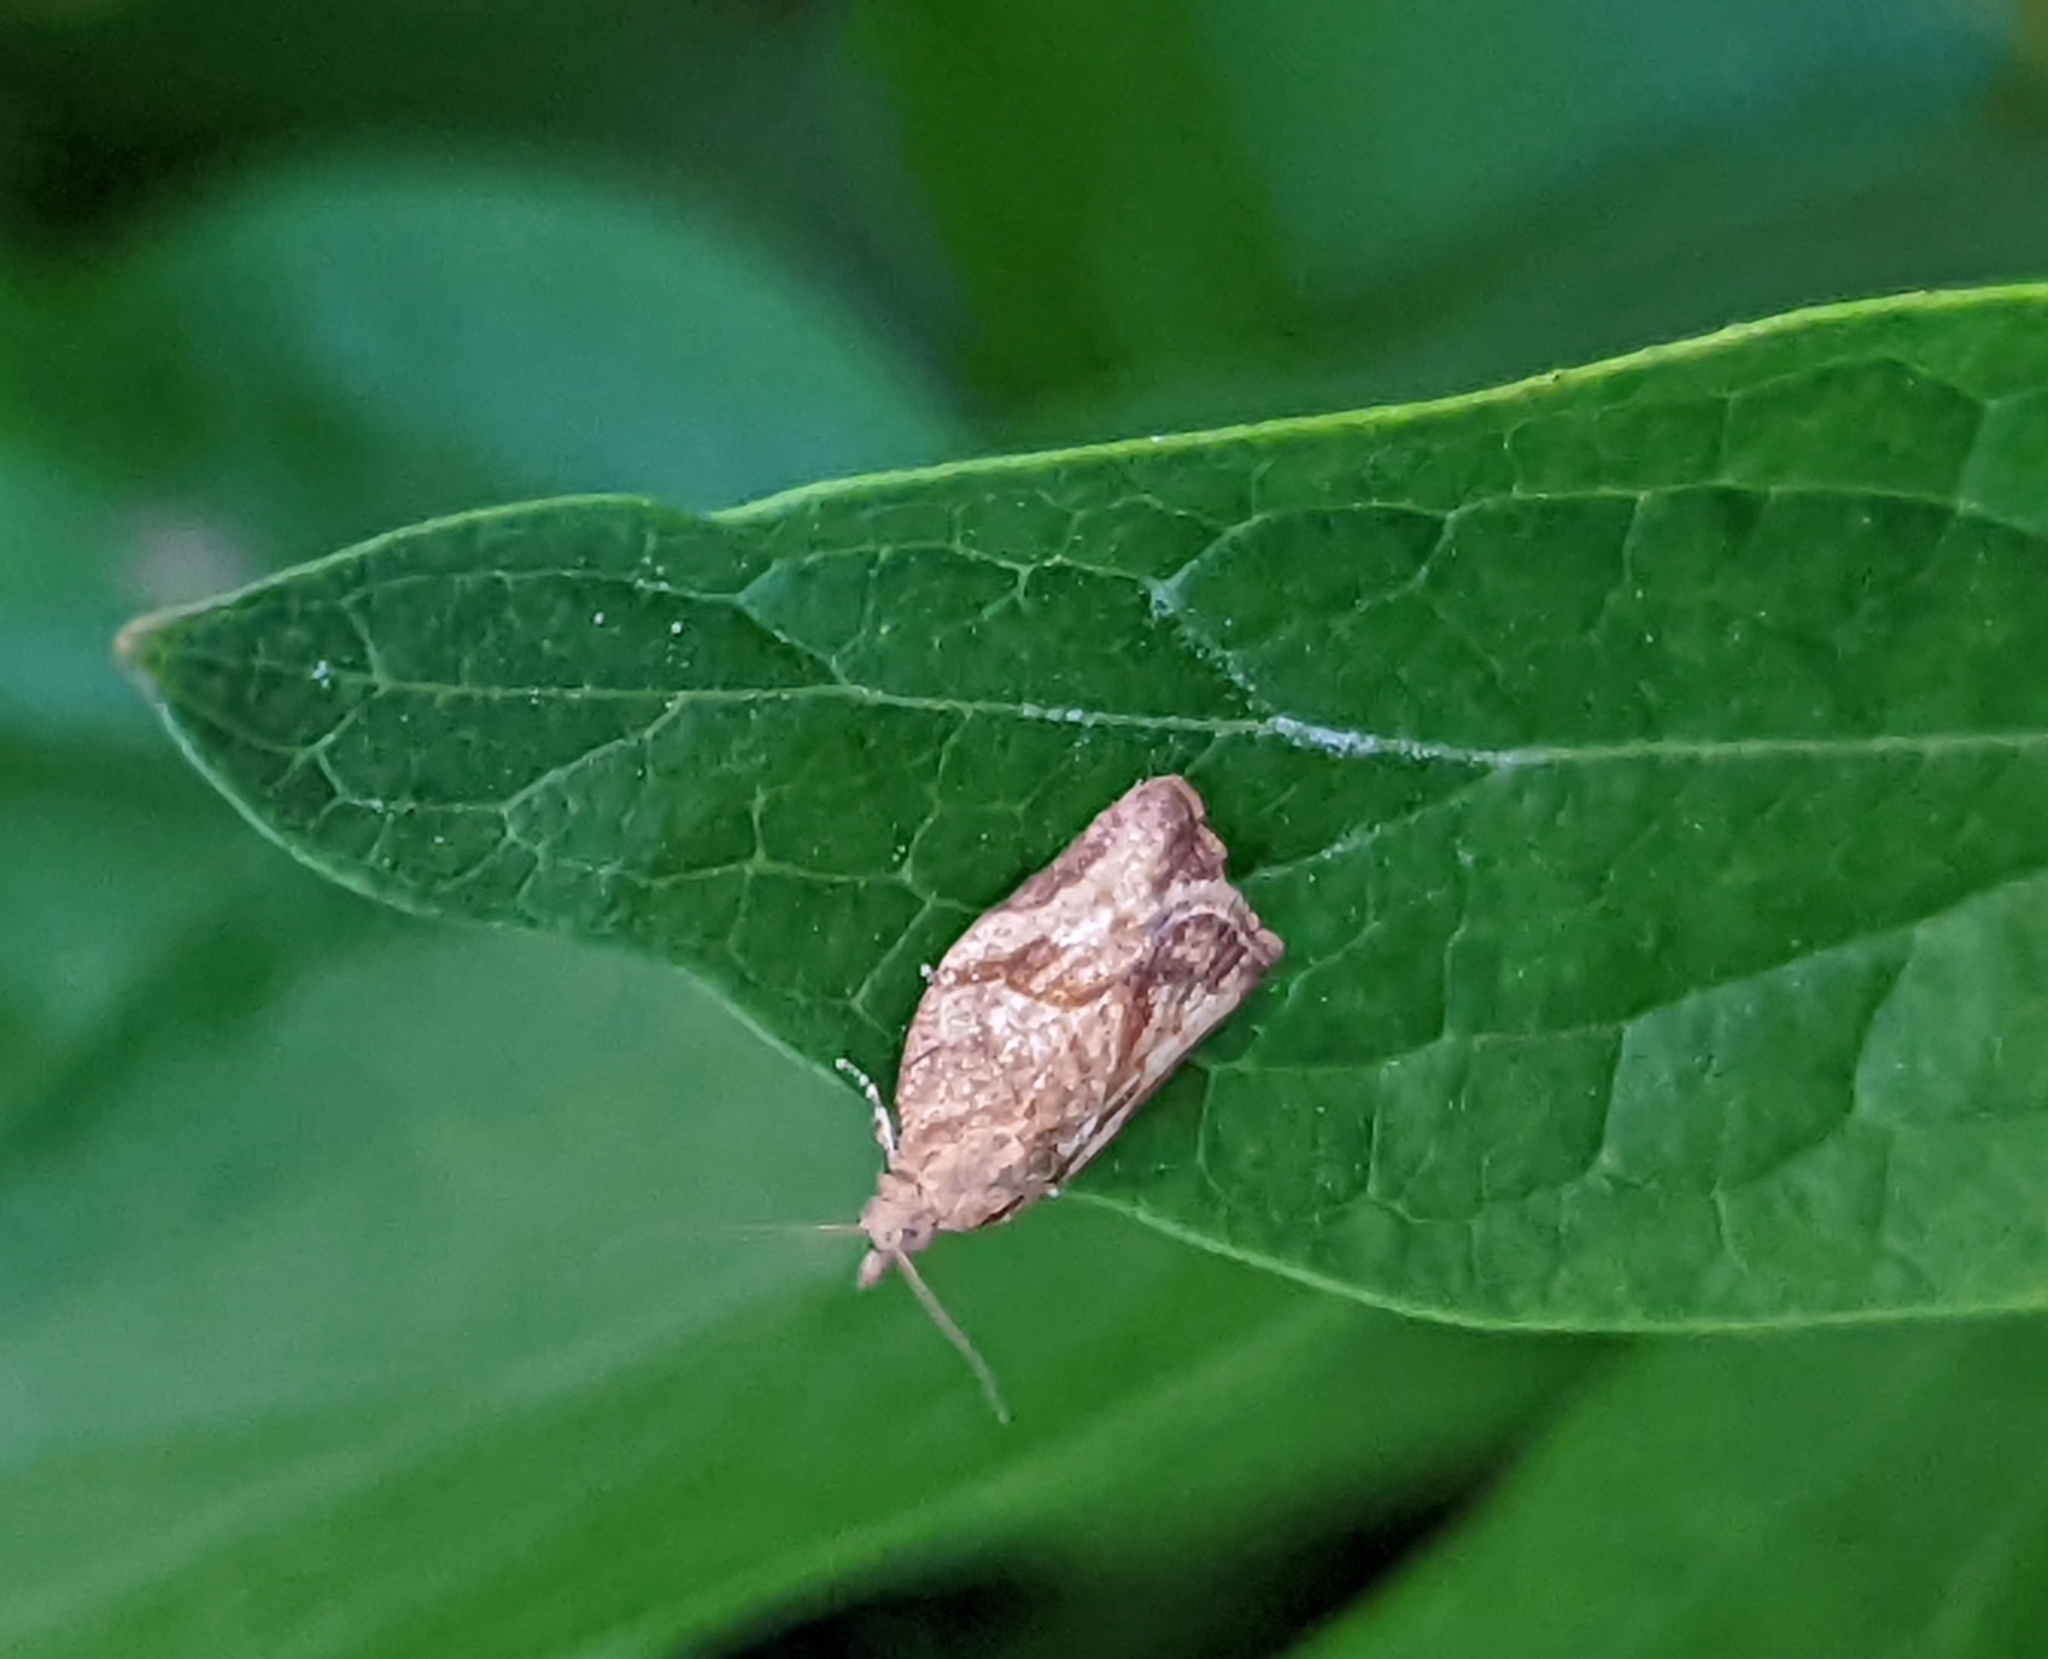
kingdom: Animalia
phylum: Arthropoda
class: Insecta
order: Lepidoptera
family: Tortricidae
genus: Epiphyas
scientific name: Epiphyas postvittana
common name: Light brown apple moth
